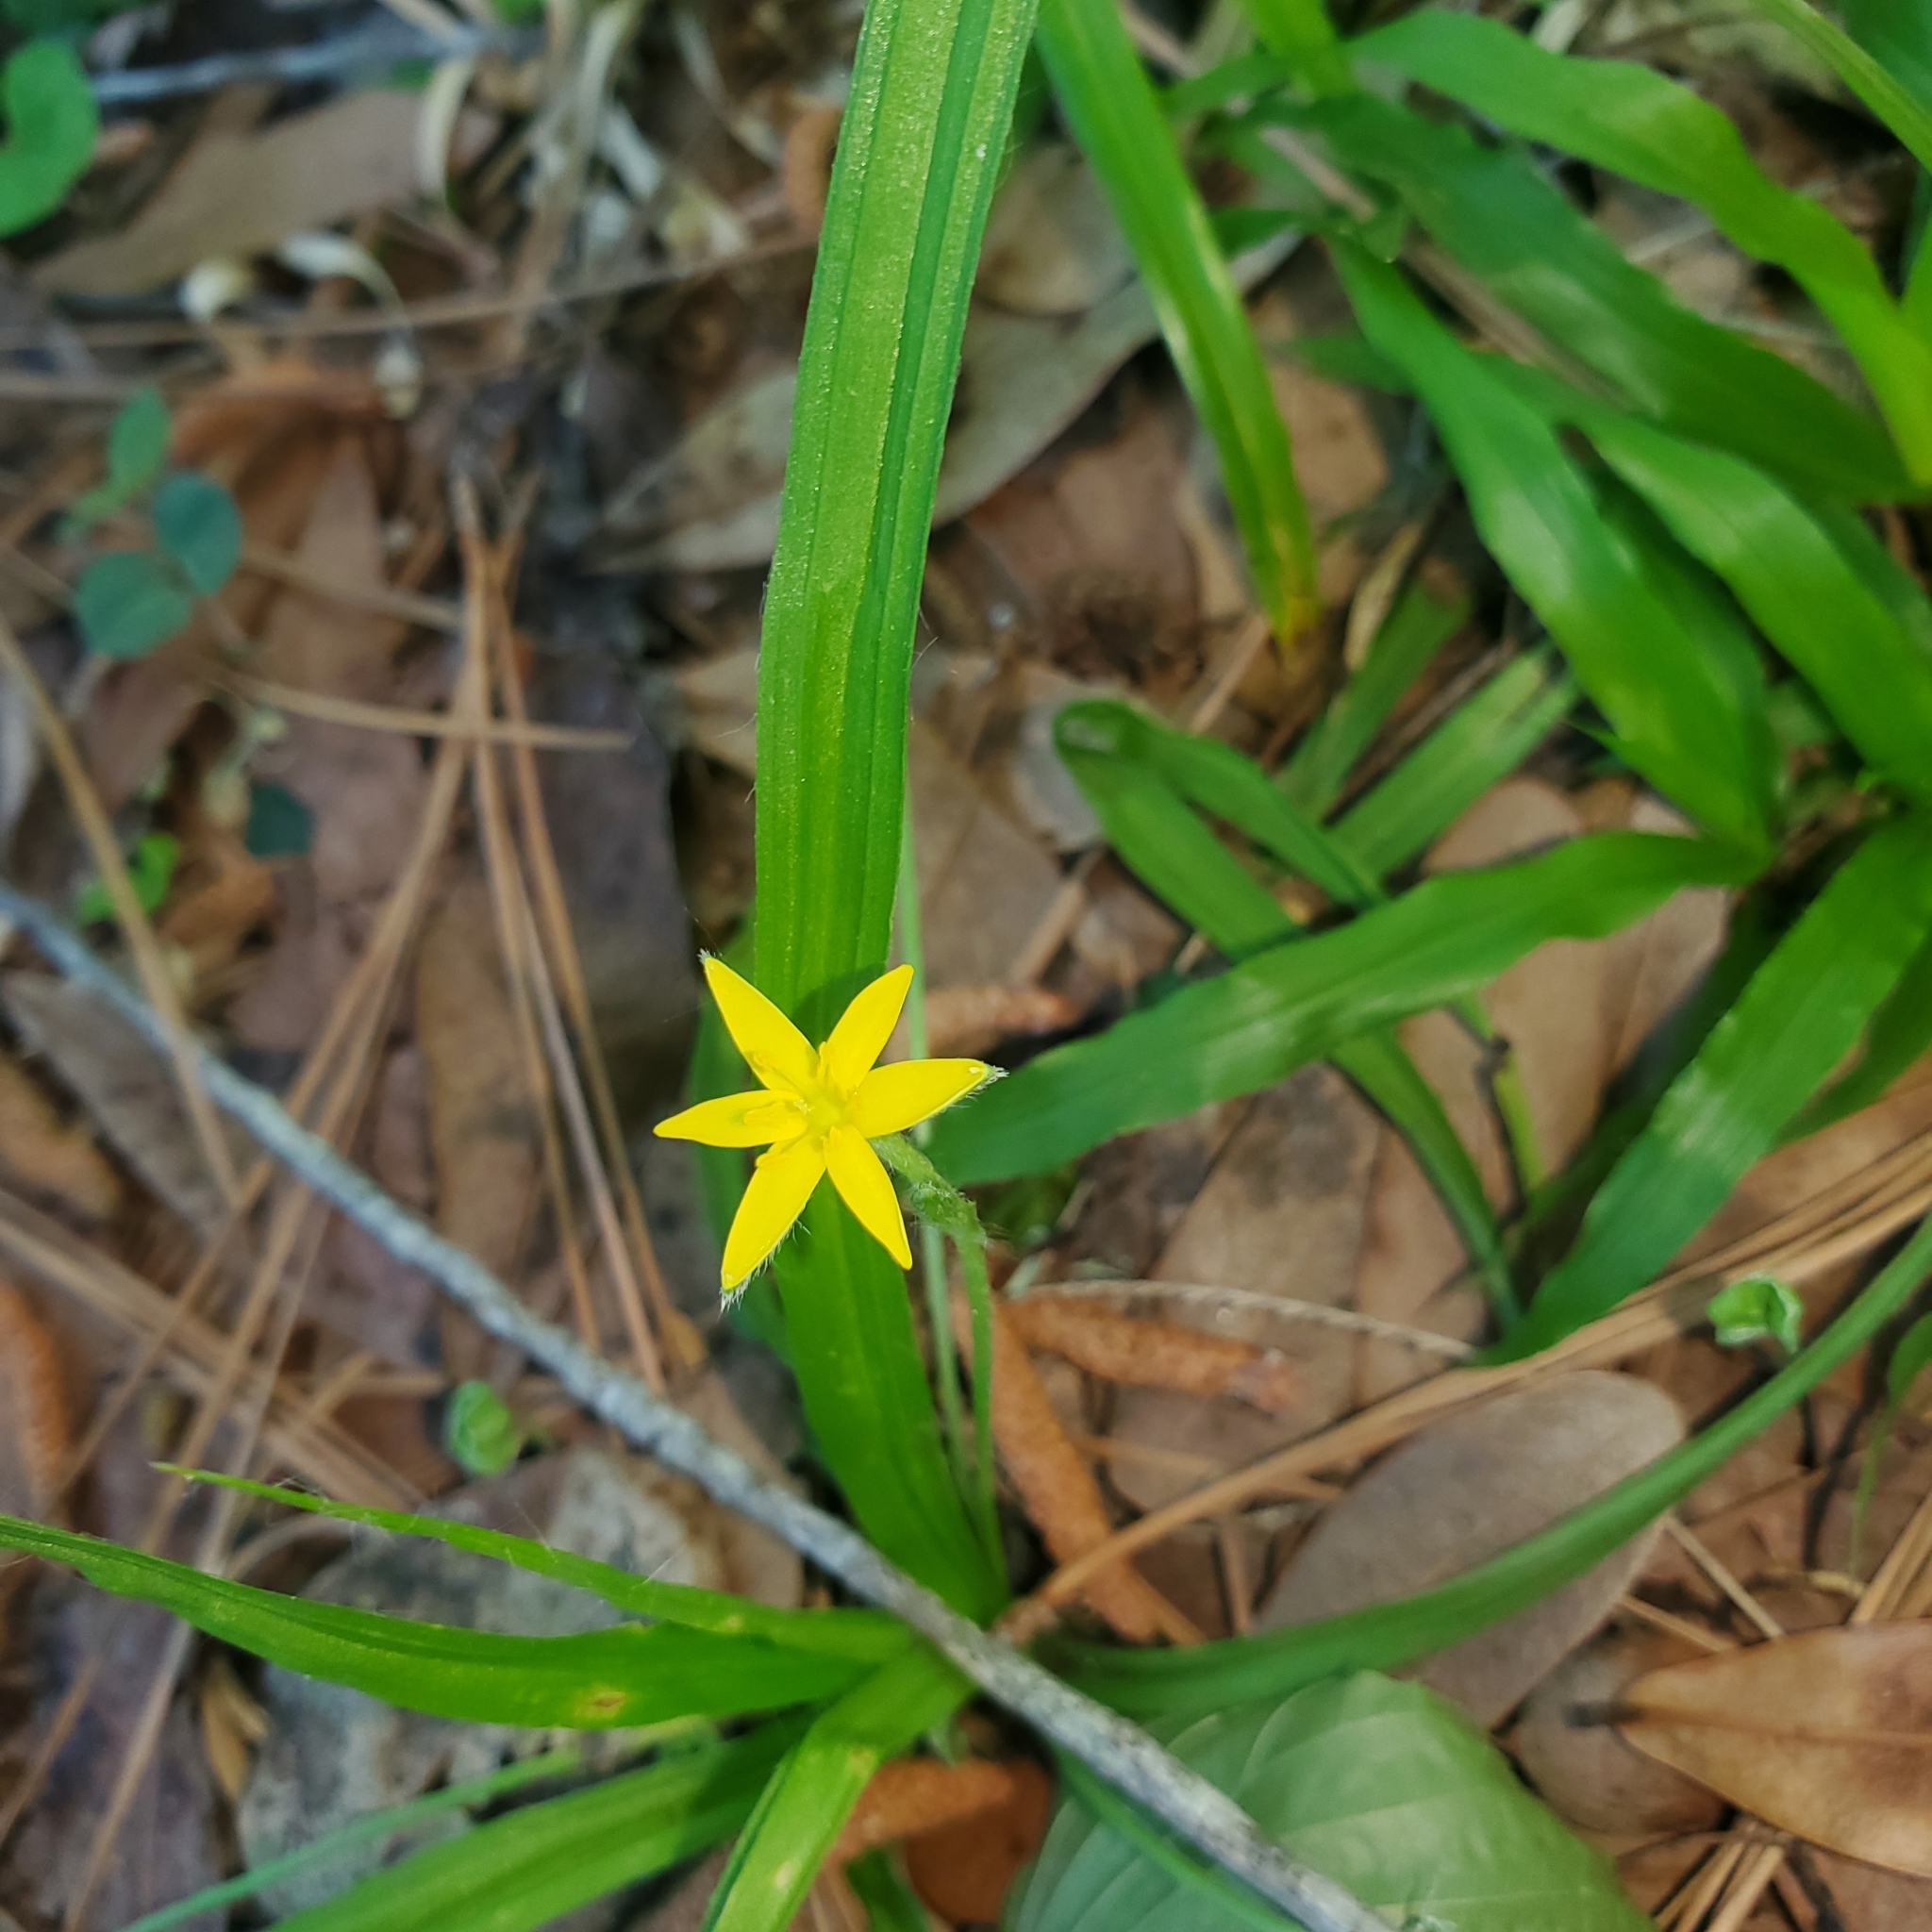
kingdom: Plantae
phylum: Tracheophyta
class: Liliopsida
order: Asparagales
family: Hypoxidaceae
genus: Hypoxis
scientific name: Hypoxis curtissii
